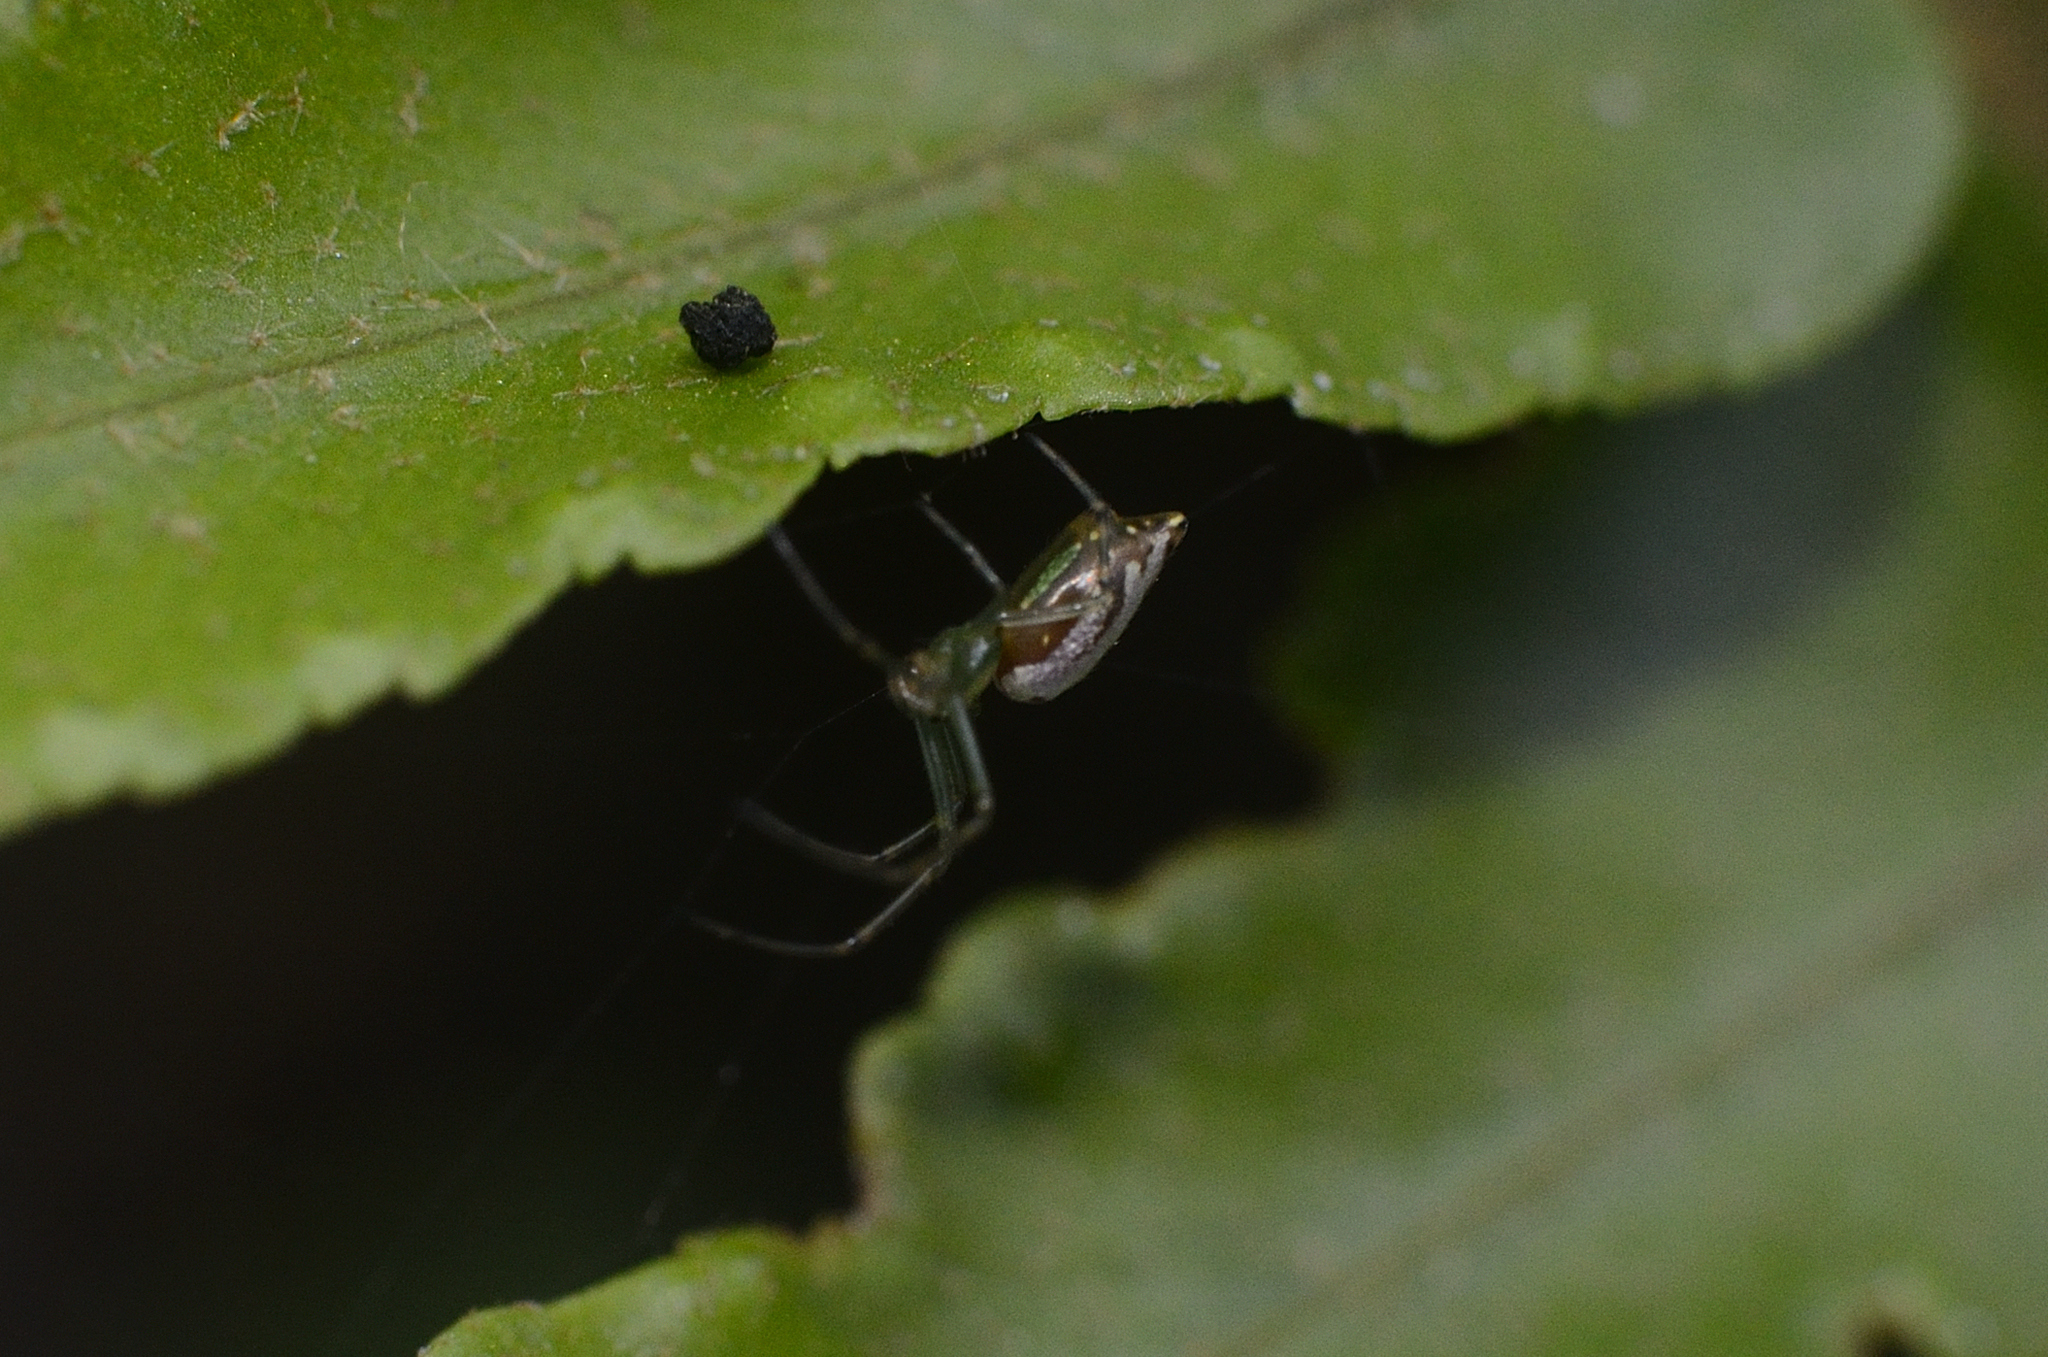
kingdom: Animalia
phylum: Arthropoda
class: Arachnida
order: Araneae
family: Tetragnathidae
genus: Leucauge
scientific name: Leucauge decorata
